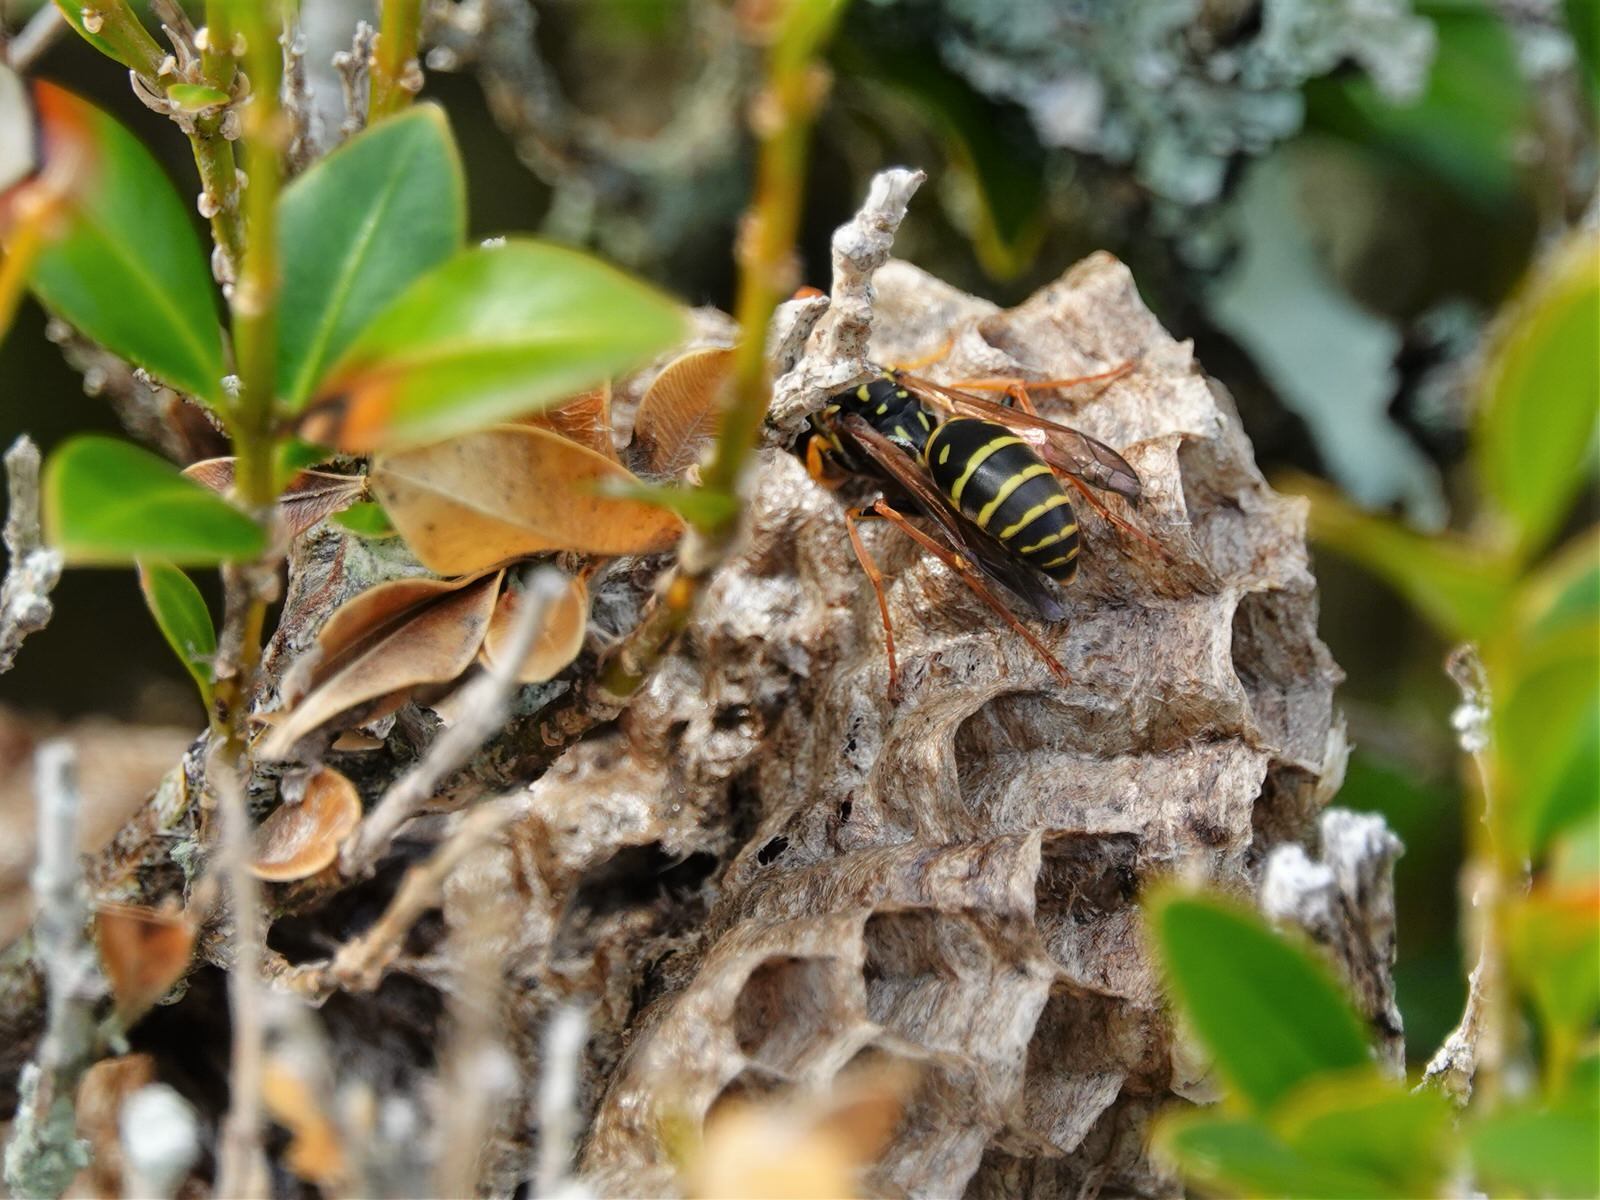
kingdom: Animalia
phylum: Arthropoda
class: Insecta
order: Hymenoptera
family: Eumenidae
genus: Polistes
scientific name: Polistes chinensis
